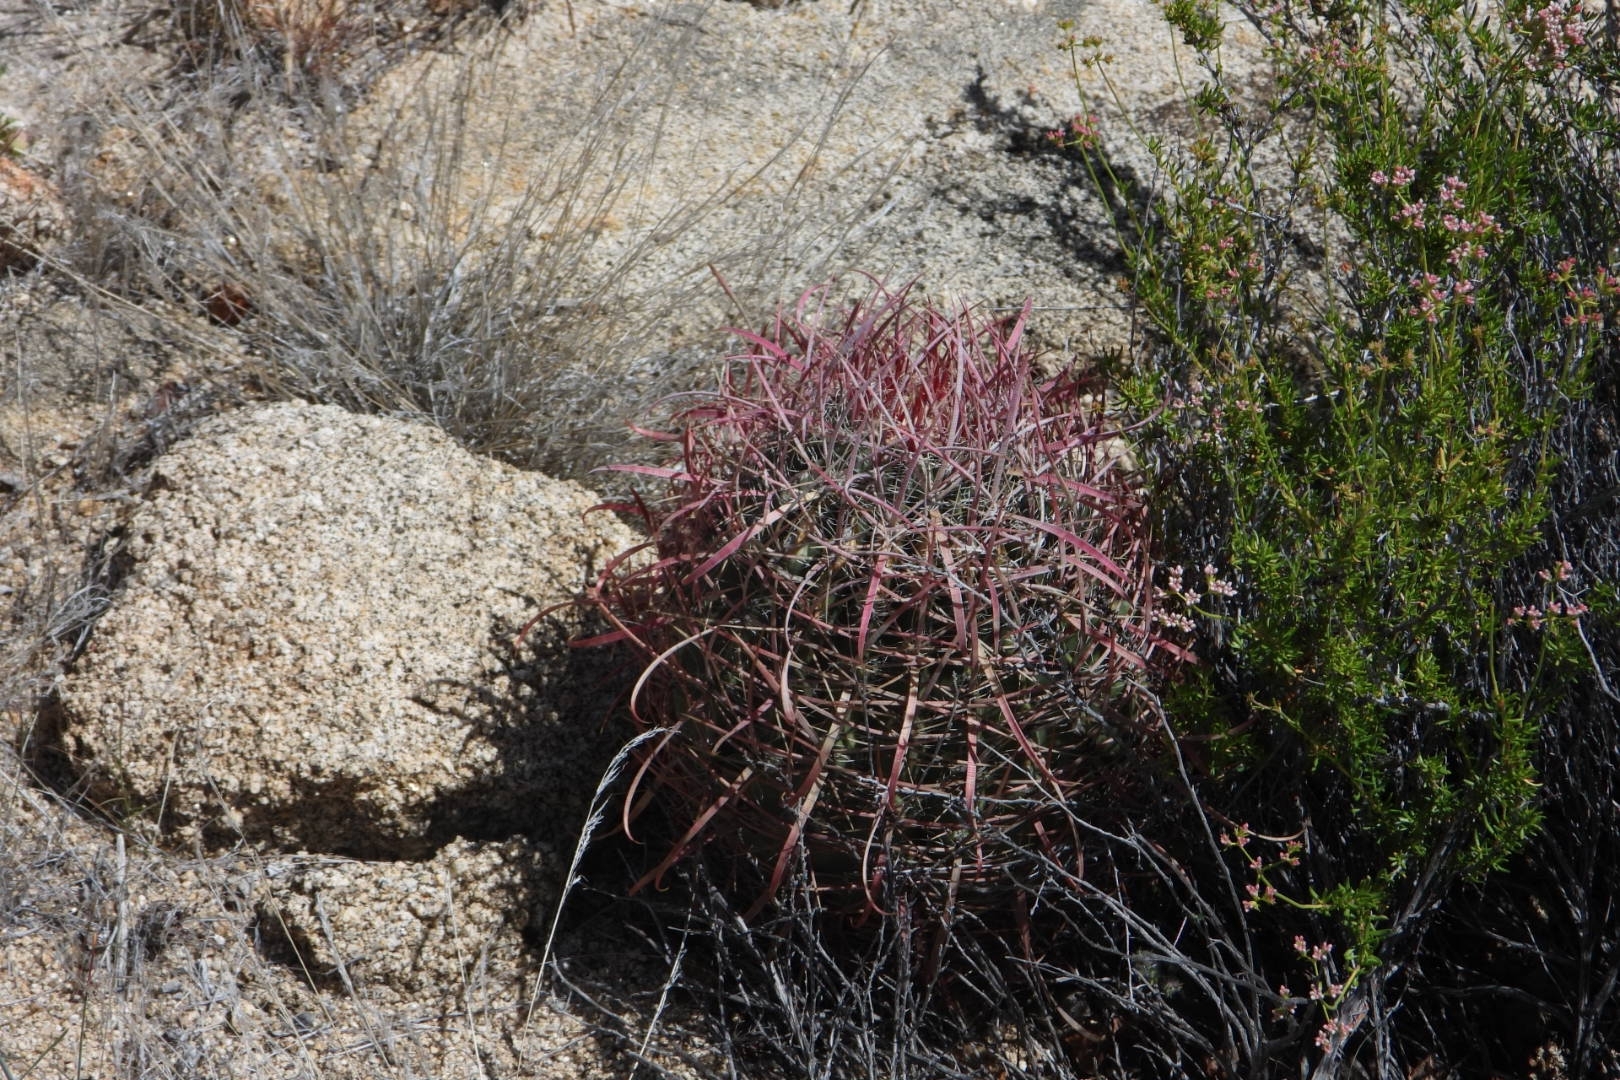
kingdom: Plantae
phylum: Tracheophyta
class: Magnoliopsida
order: Caryophyllales
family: Cactaceae
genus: Ferocactus
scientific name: Ferocactus gracilis
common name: Fire barrel cactus
